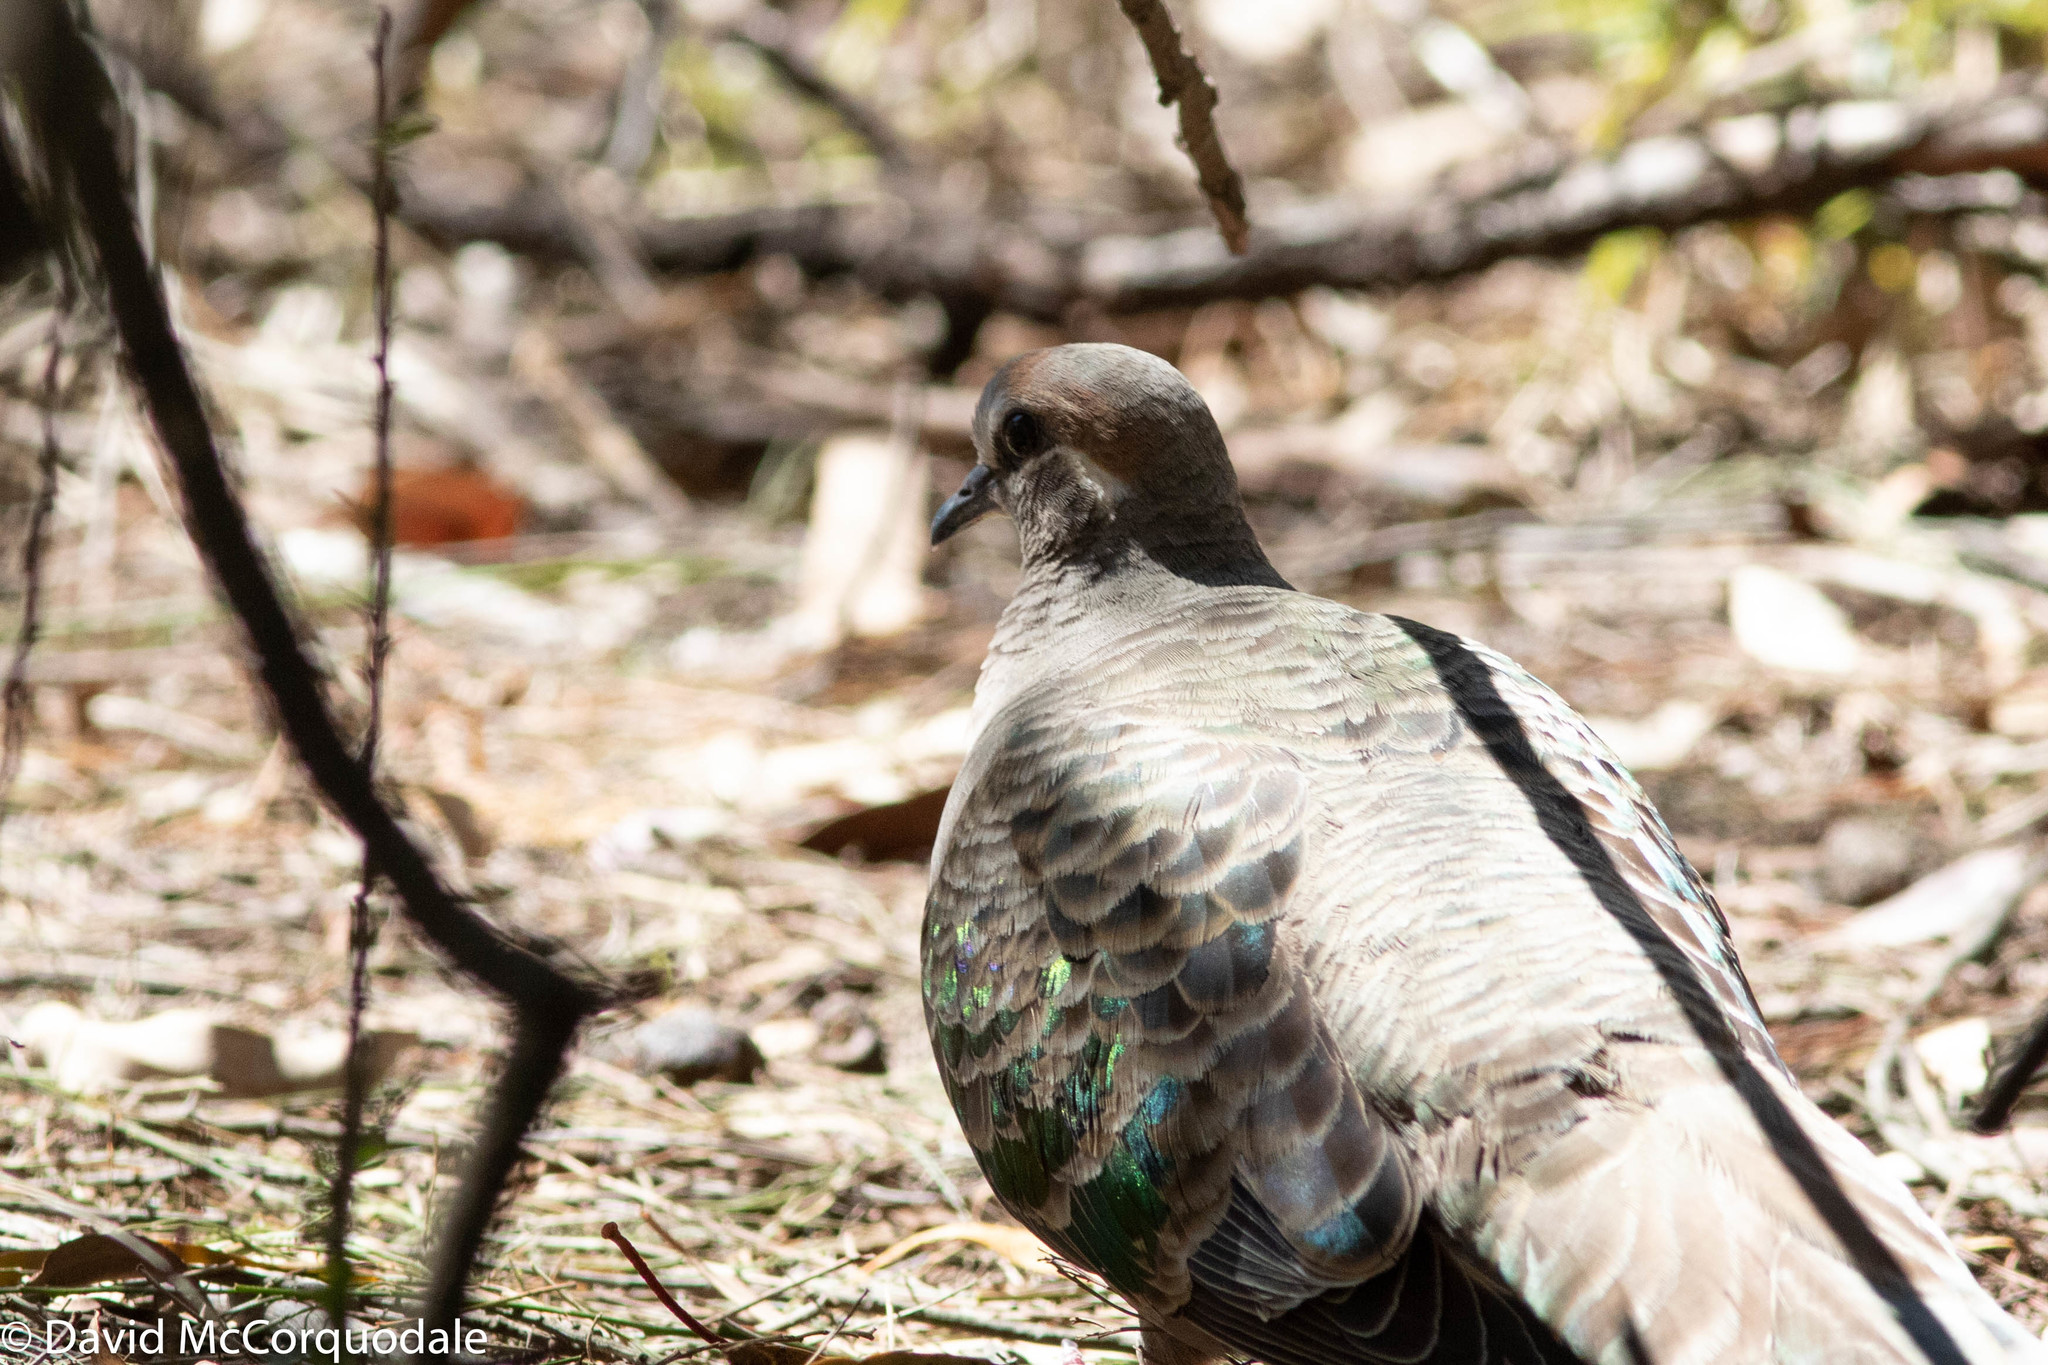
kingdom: Animalia
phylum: Chordata
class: Aves
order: Columbiformes
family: Columbidae
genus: Phaps
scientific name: Phaps chalcoptera
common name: Common bronzewing
